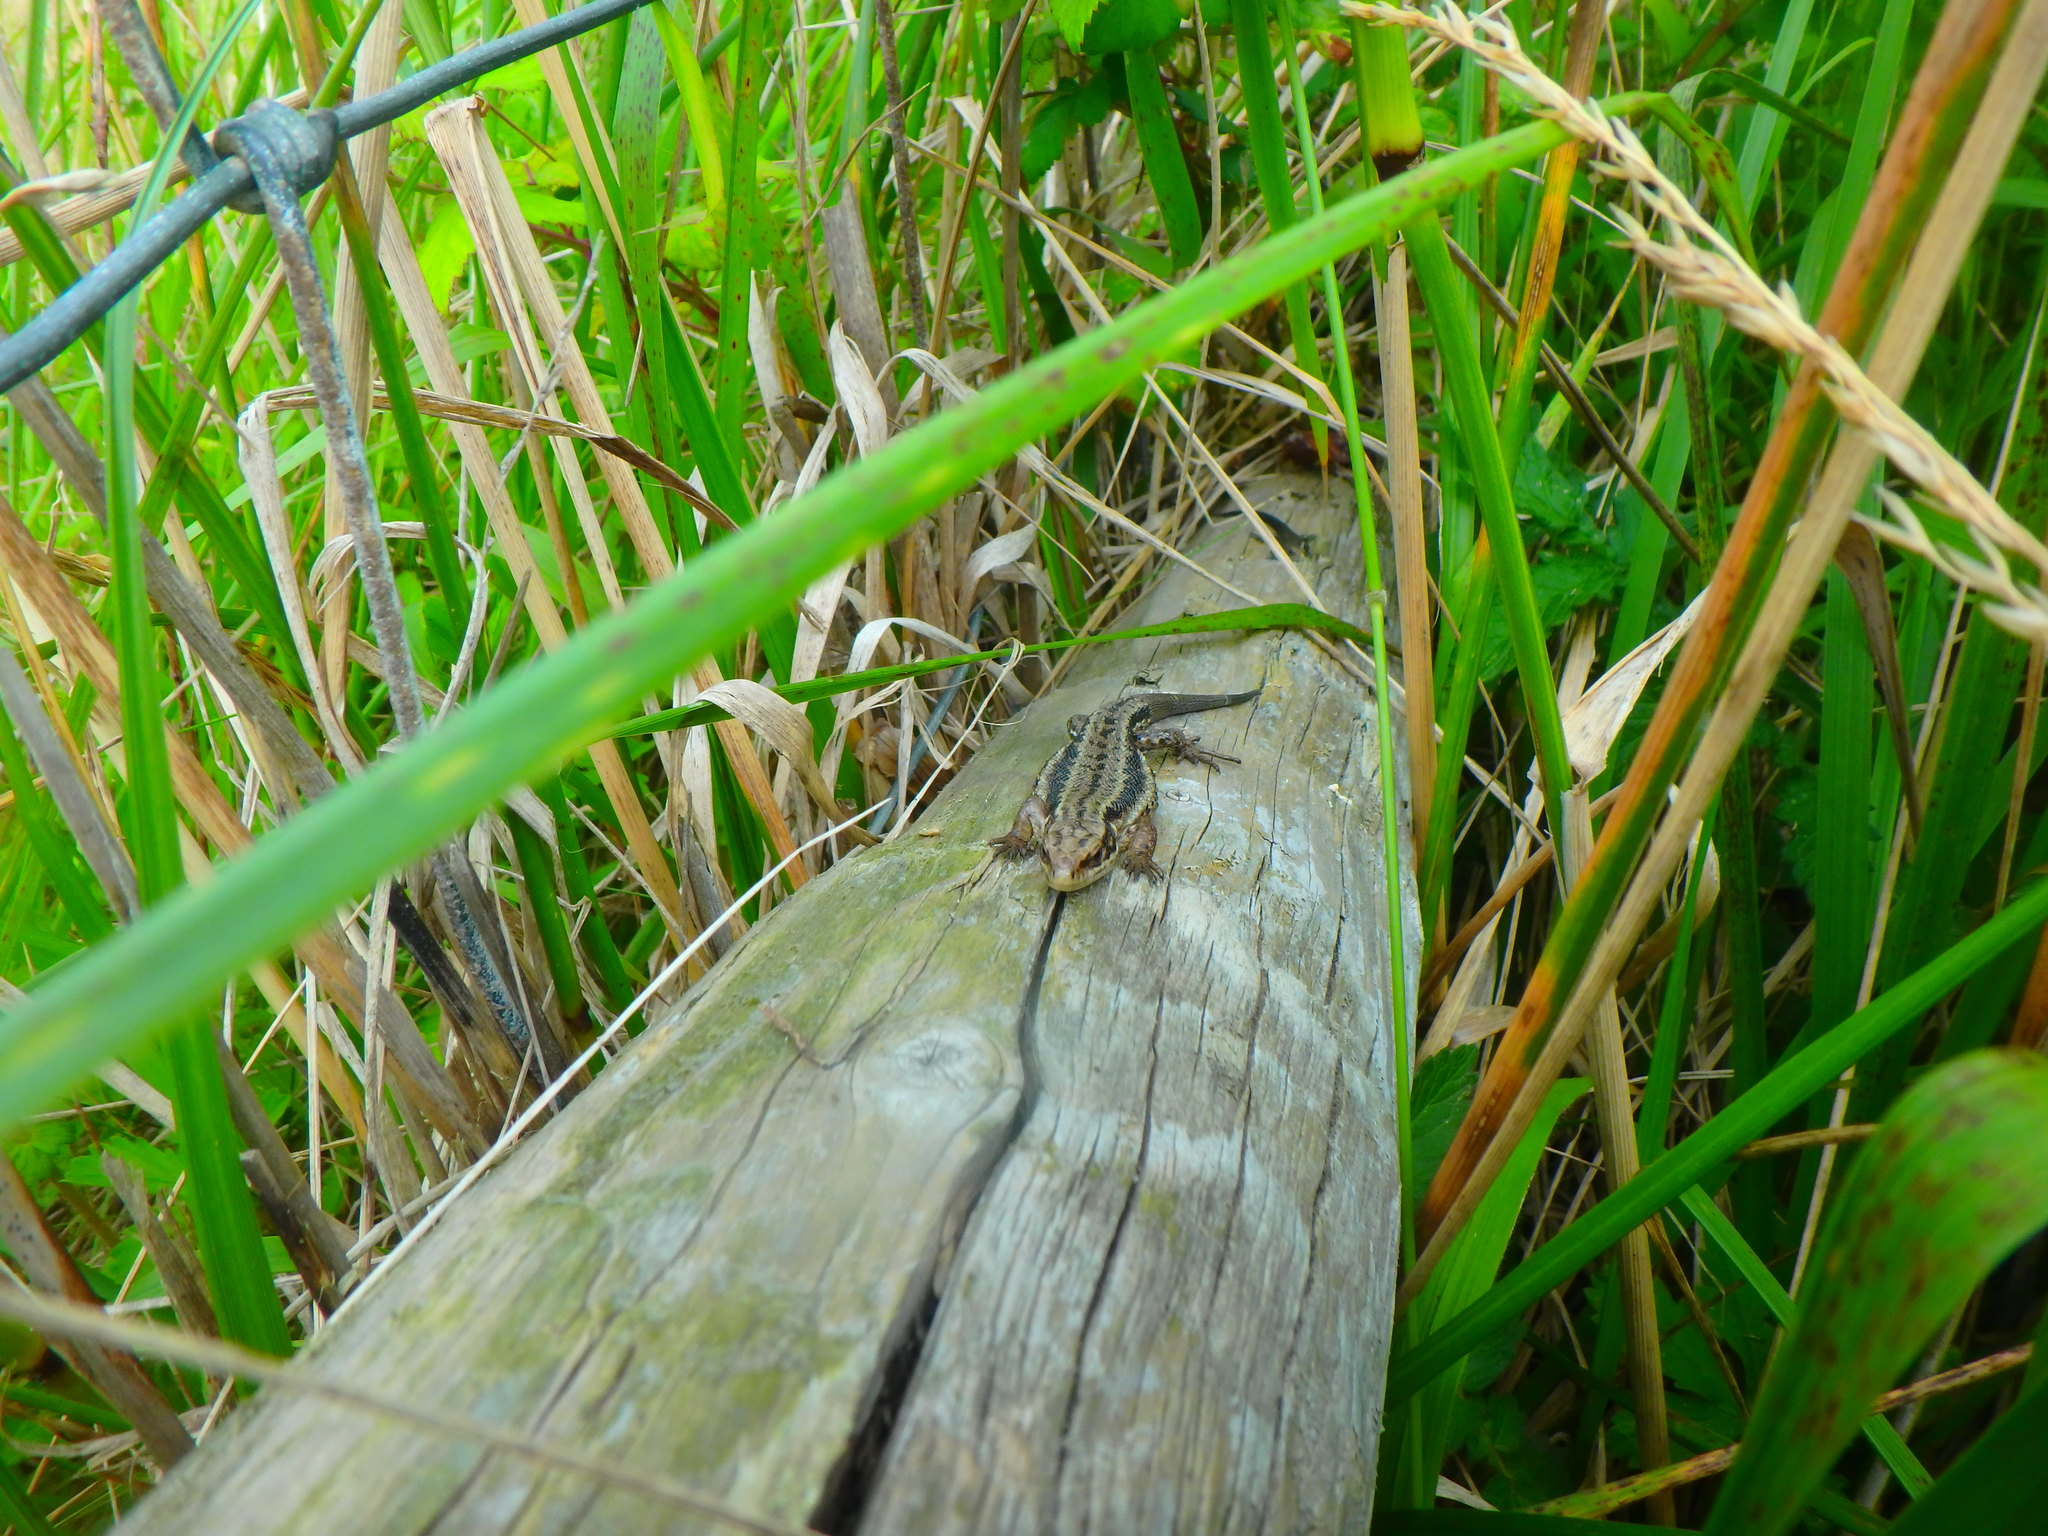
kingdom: Animalia
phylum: Chordata
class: Squamata
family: Lacertidae
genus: Zootoca
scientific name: Zootoca vivipara
